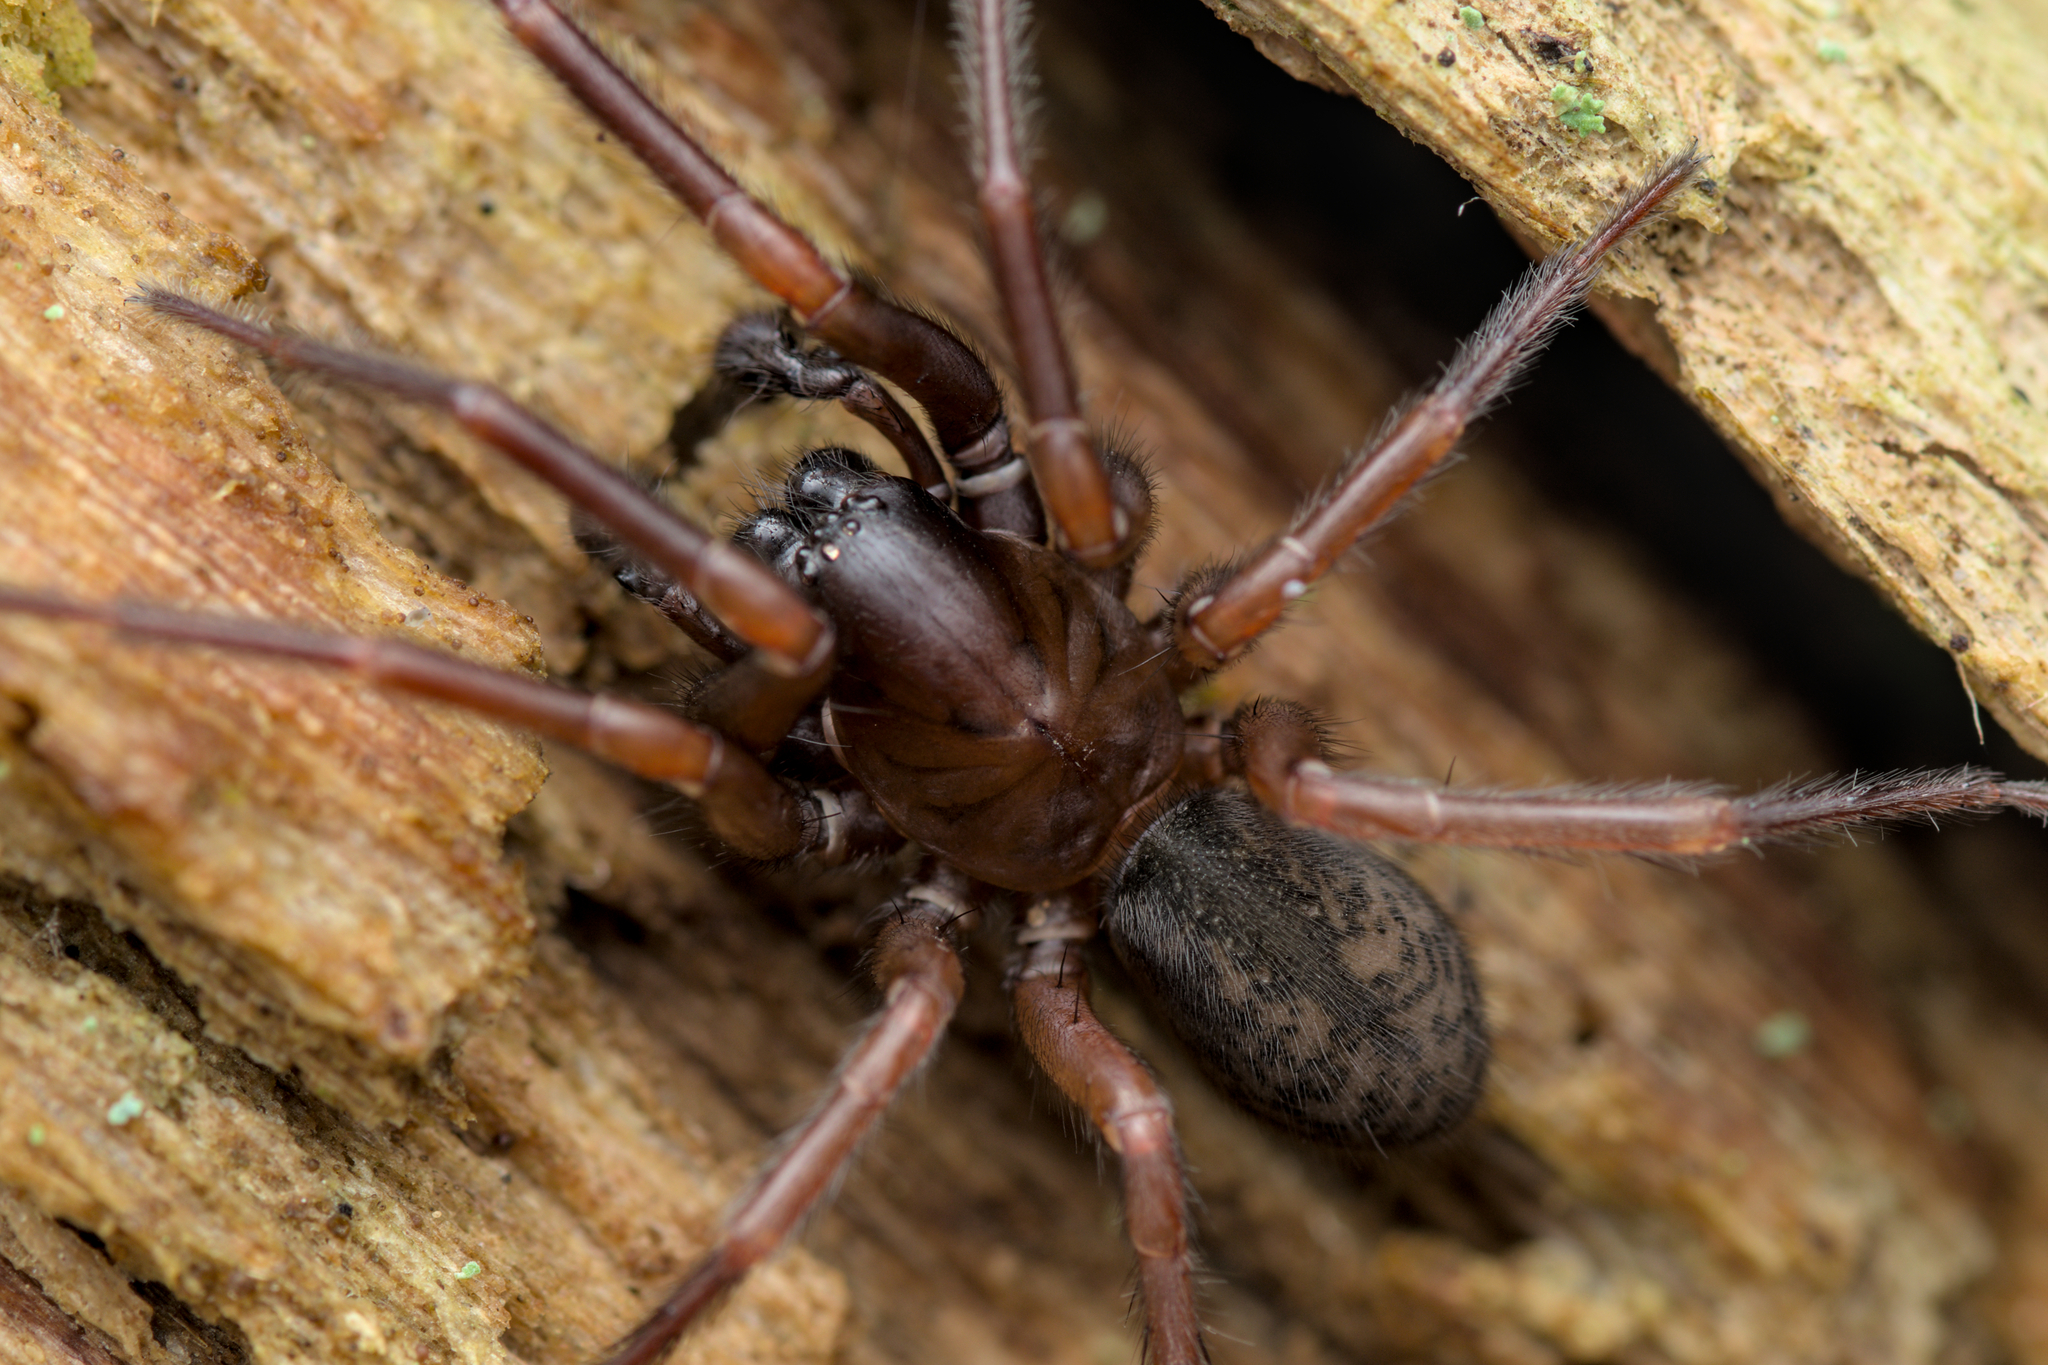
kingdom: Animalia
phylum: Arthropoda
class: Arachnida
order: Araneae
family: Agelenidae
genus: Coelotes
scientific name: Coelotes atropos
